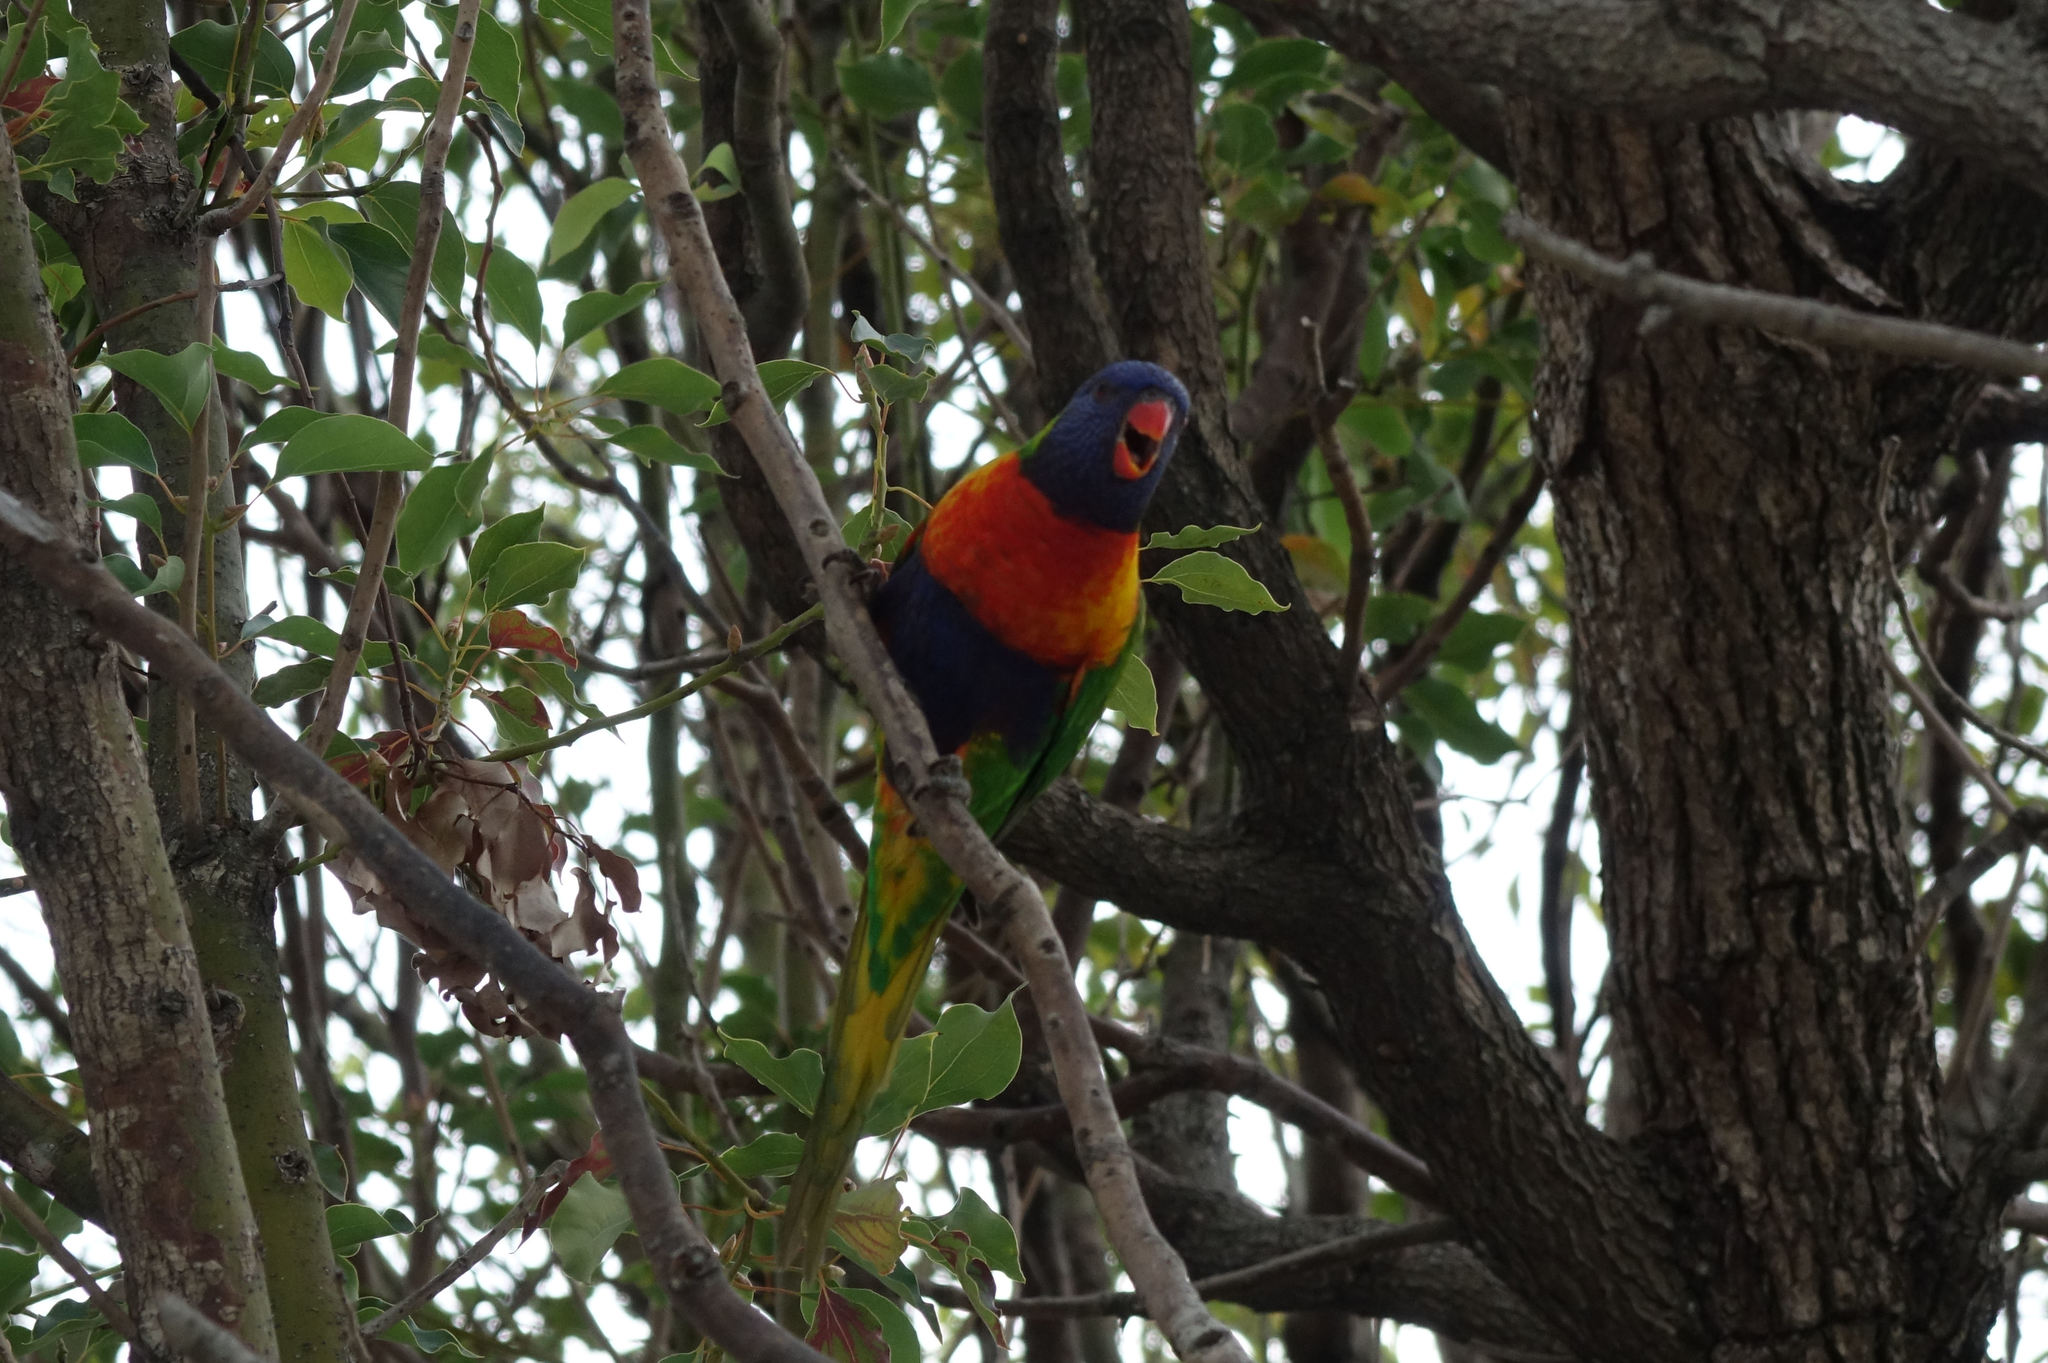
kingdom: Animalia
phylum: Chordata
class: Aves
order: Psittaciformes
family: Psittacidae
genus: Trichoglossus
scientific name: Trichoglossus haematodus
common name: Coconut lorikeet
